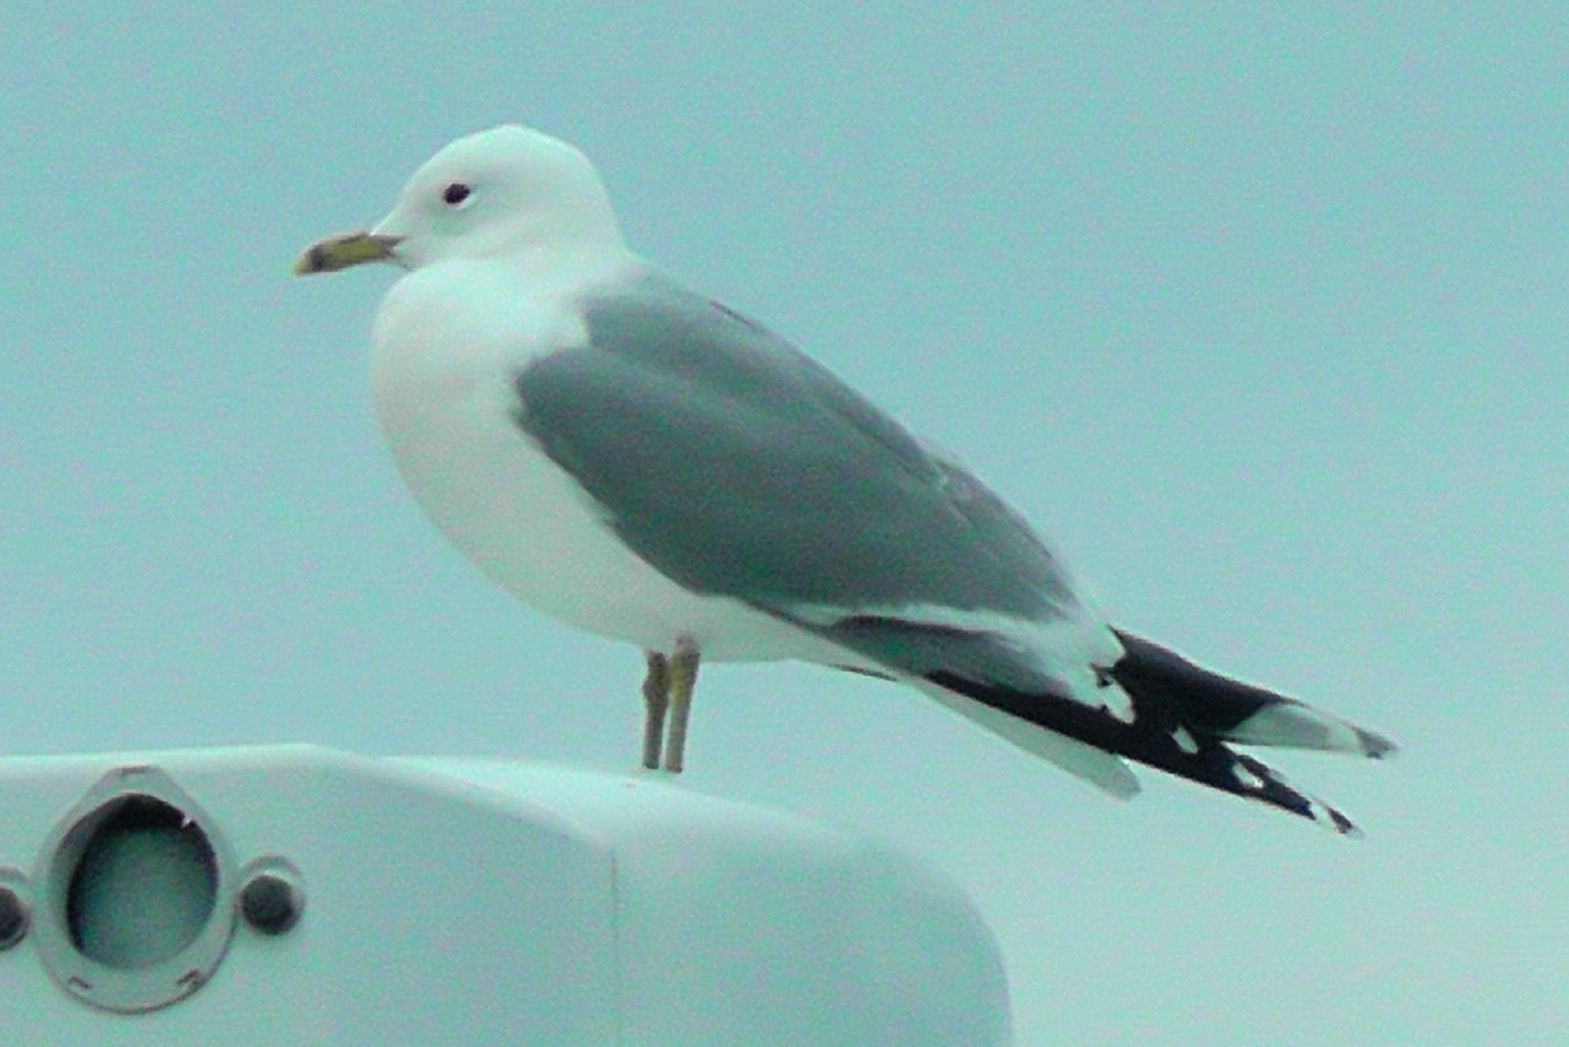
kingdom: Animalia
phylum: Chordata
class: Aves
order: Charadriiformes
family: Laridae
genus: Larus
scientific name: Larus canus
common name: Mew gull
